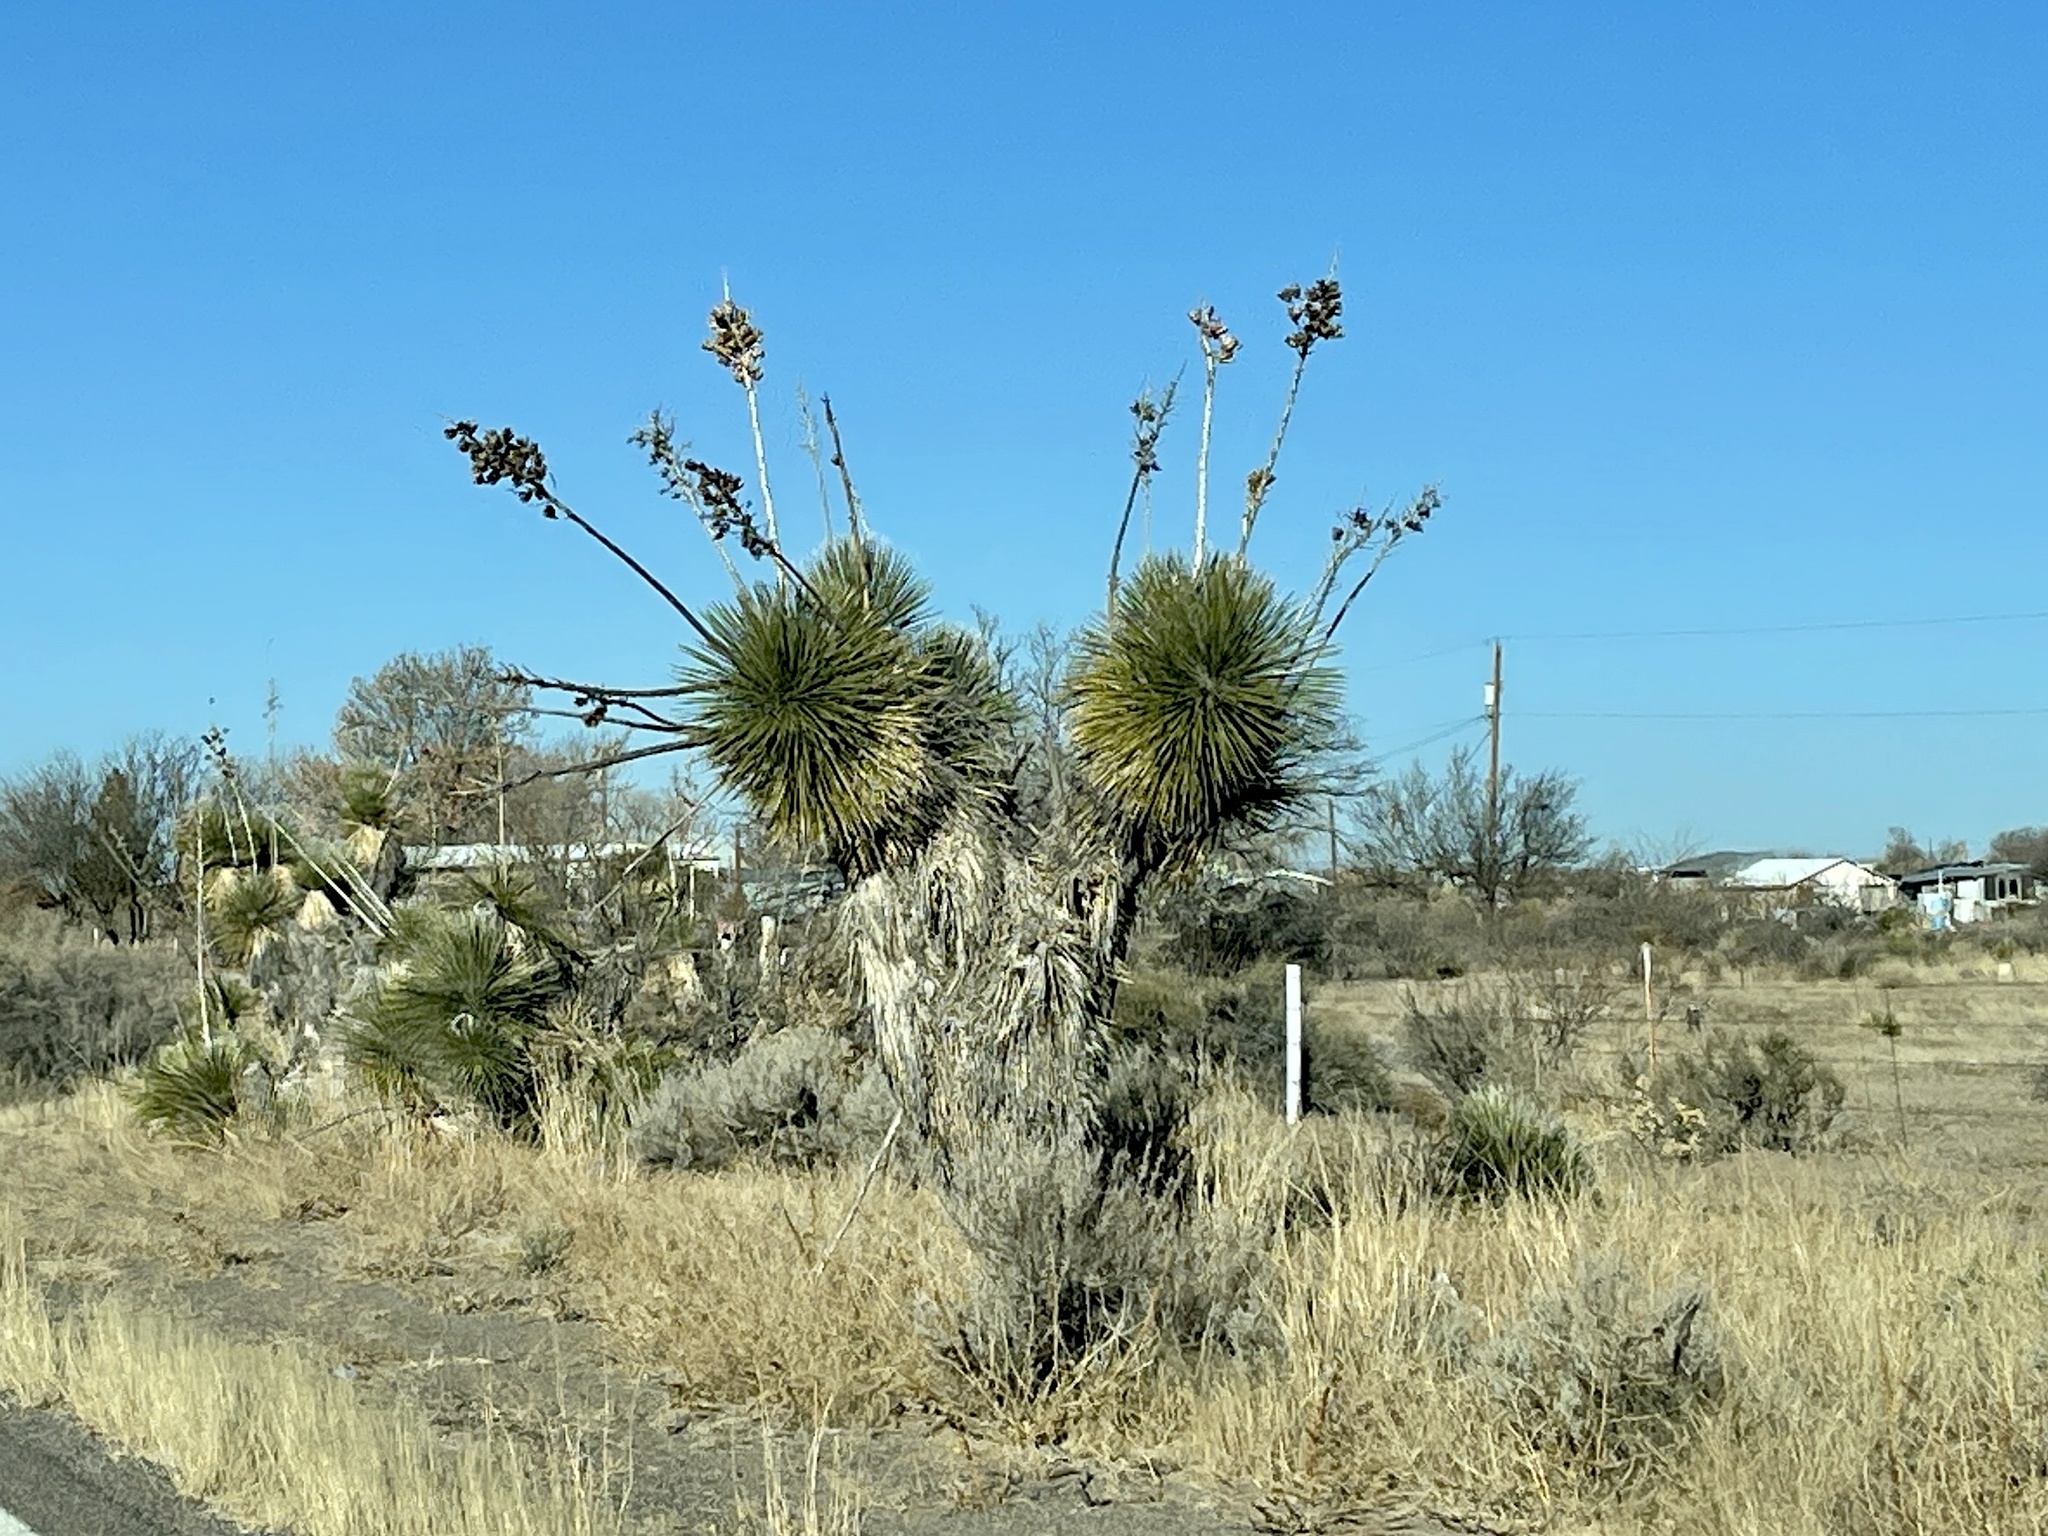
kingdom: Plantae
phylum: Tracheophyta
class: Liliopsida
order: Asparagales
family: Asparagaceae
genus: Yucca
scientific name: Yucca elata
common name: Palmella
